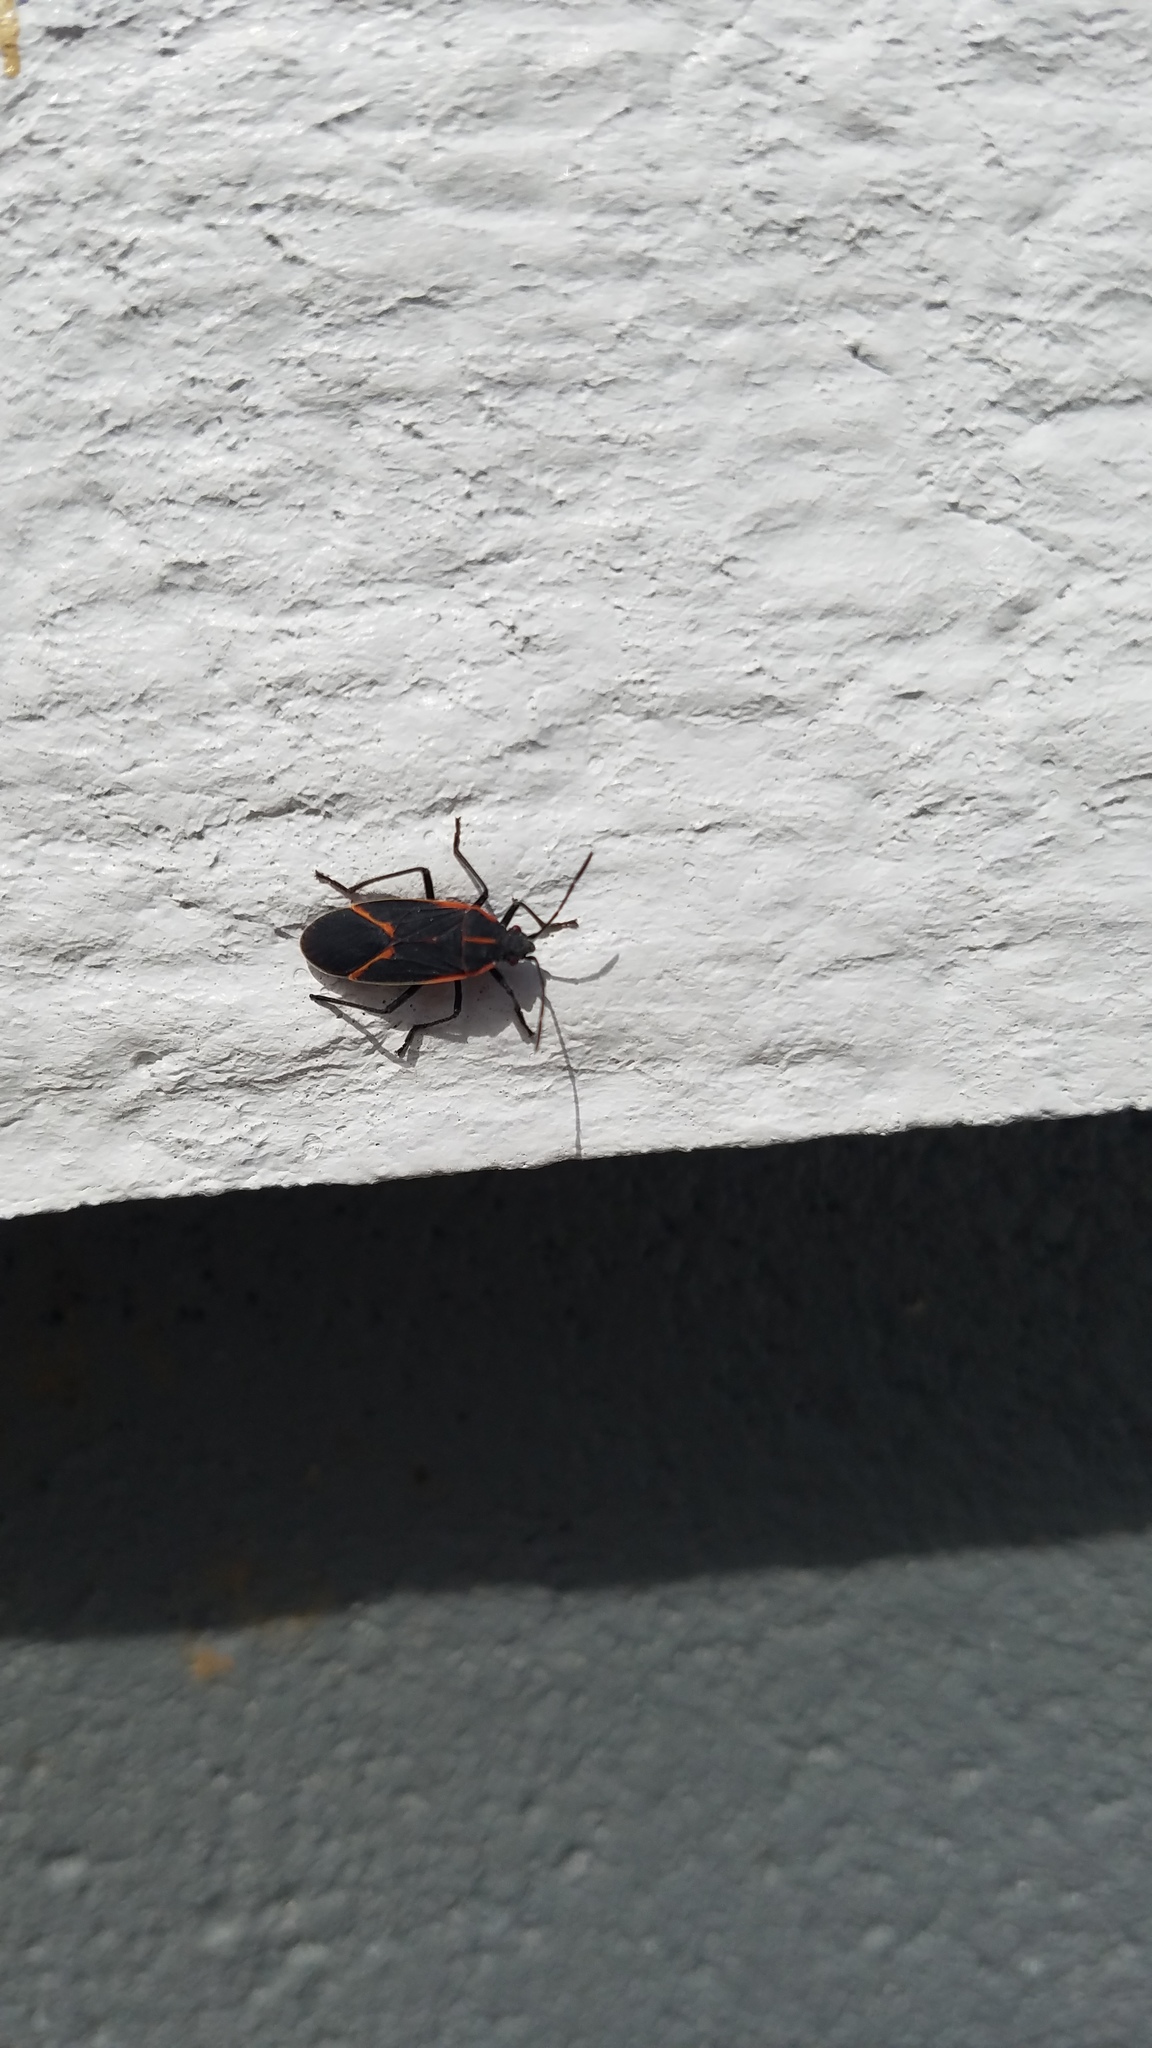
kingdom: Animalia
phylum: Arthropoda
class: Insecta
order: Hemiptera
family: Rhopalidae
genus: Boisea
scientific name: Boisea trivittata
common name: Boxelder bug
